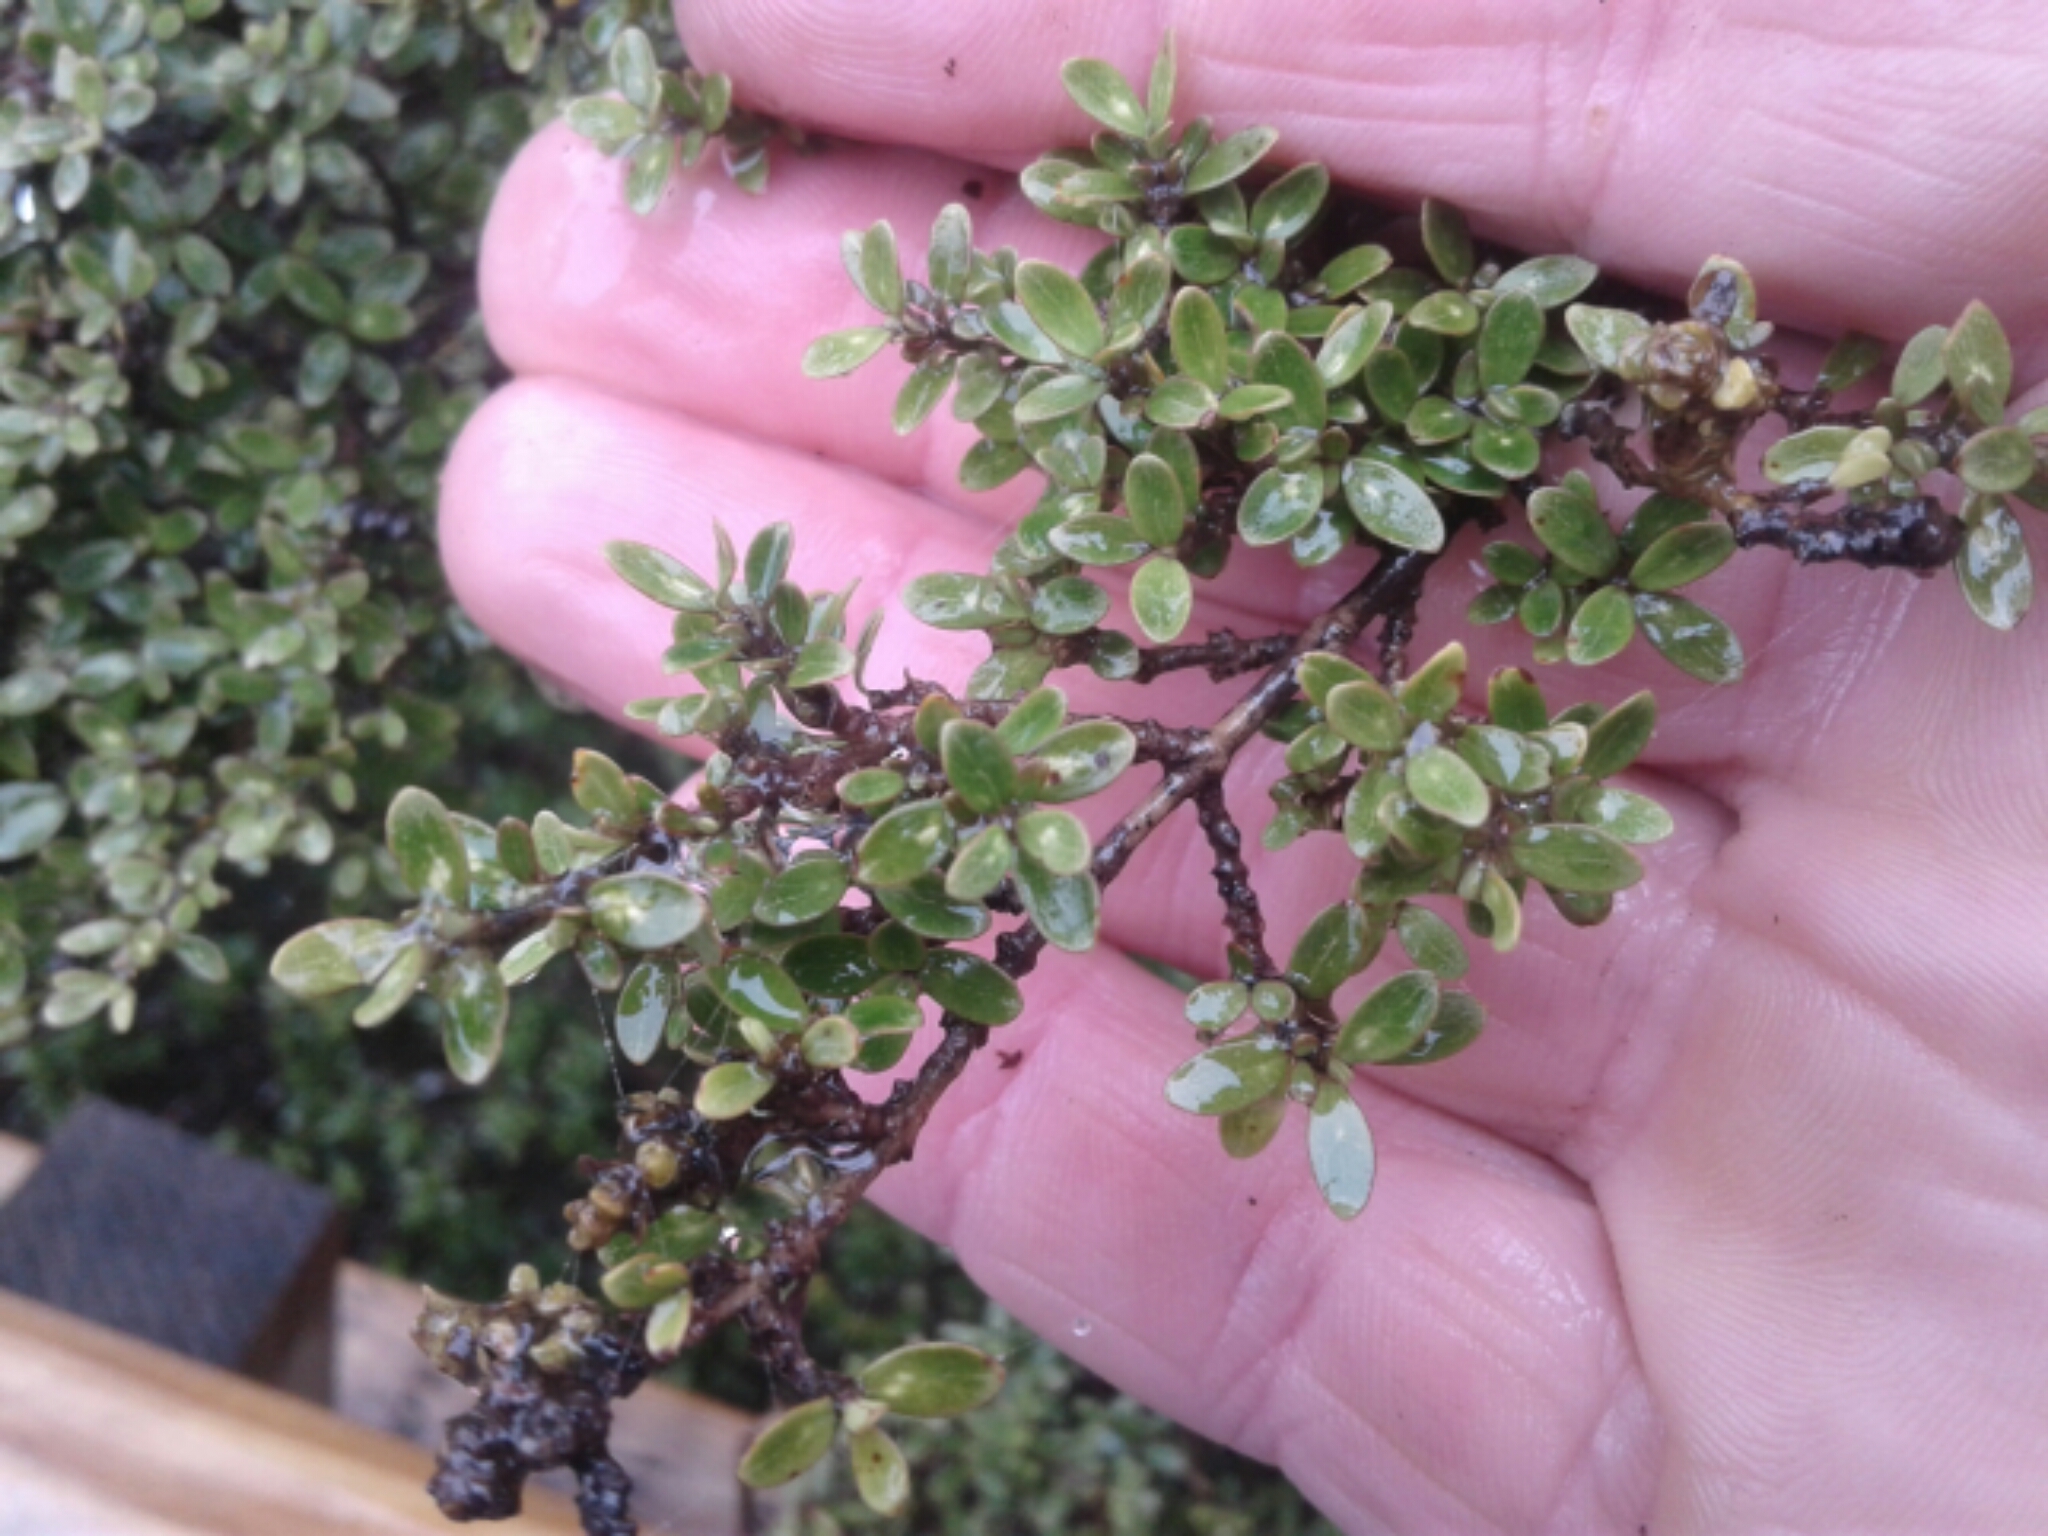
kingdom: Plantae
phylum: Tracheophyta
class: Magnoliopsida
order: Gentianales
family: Rubiaceae
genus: Coprosma
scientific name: Coprosma dumosa
